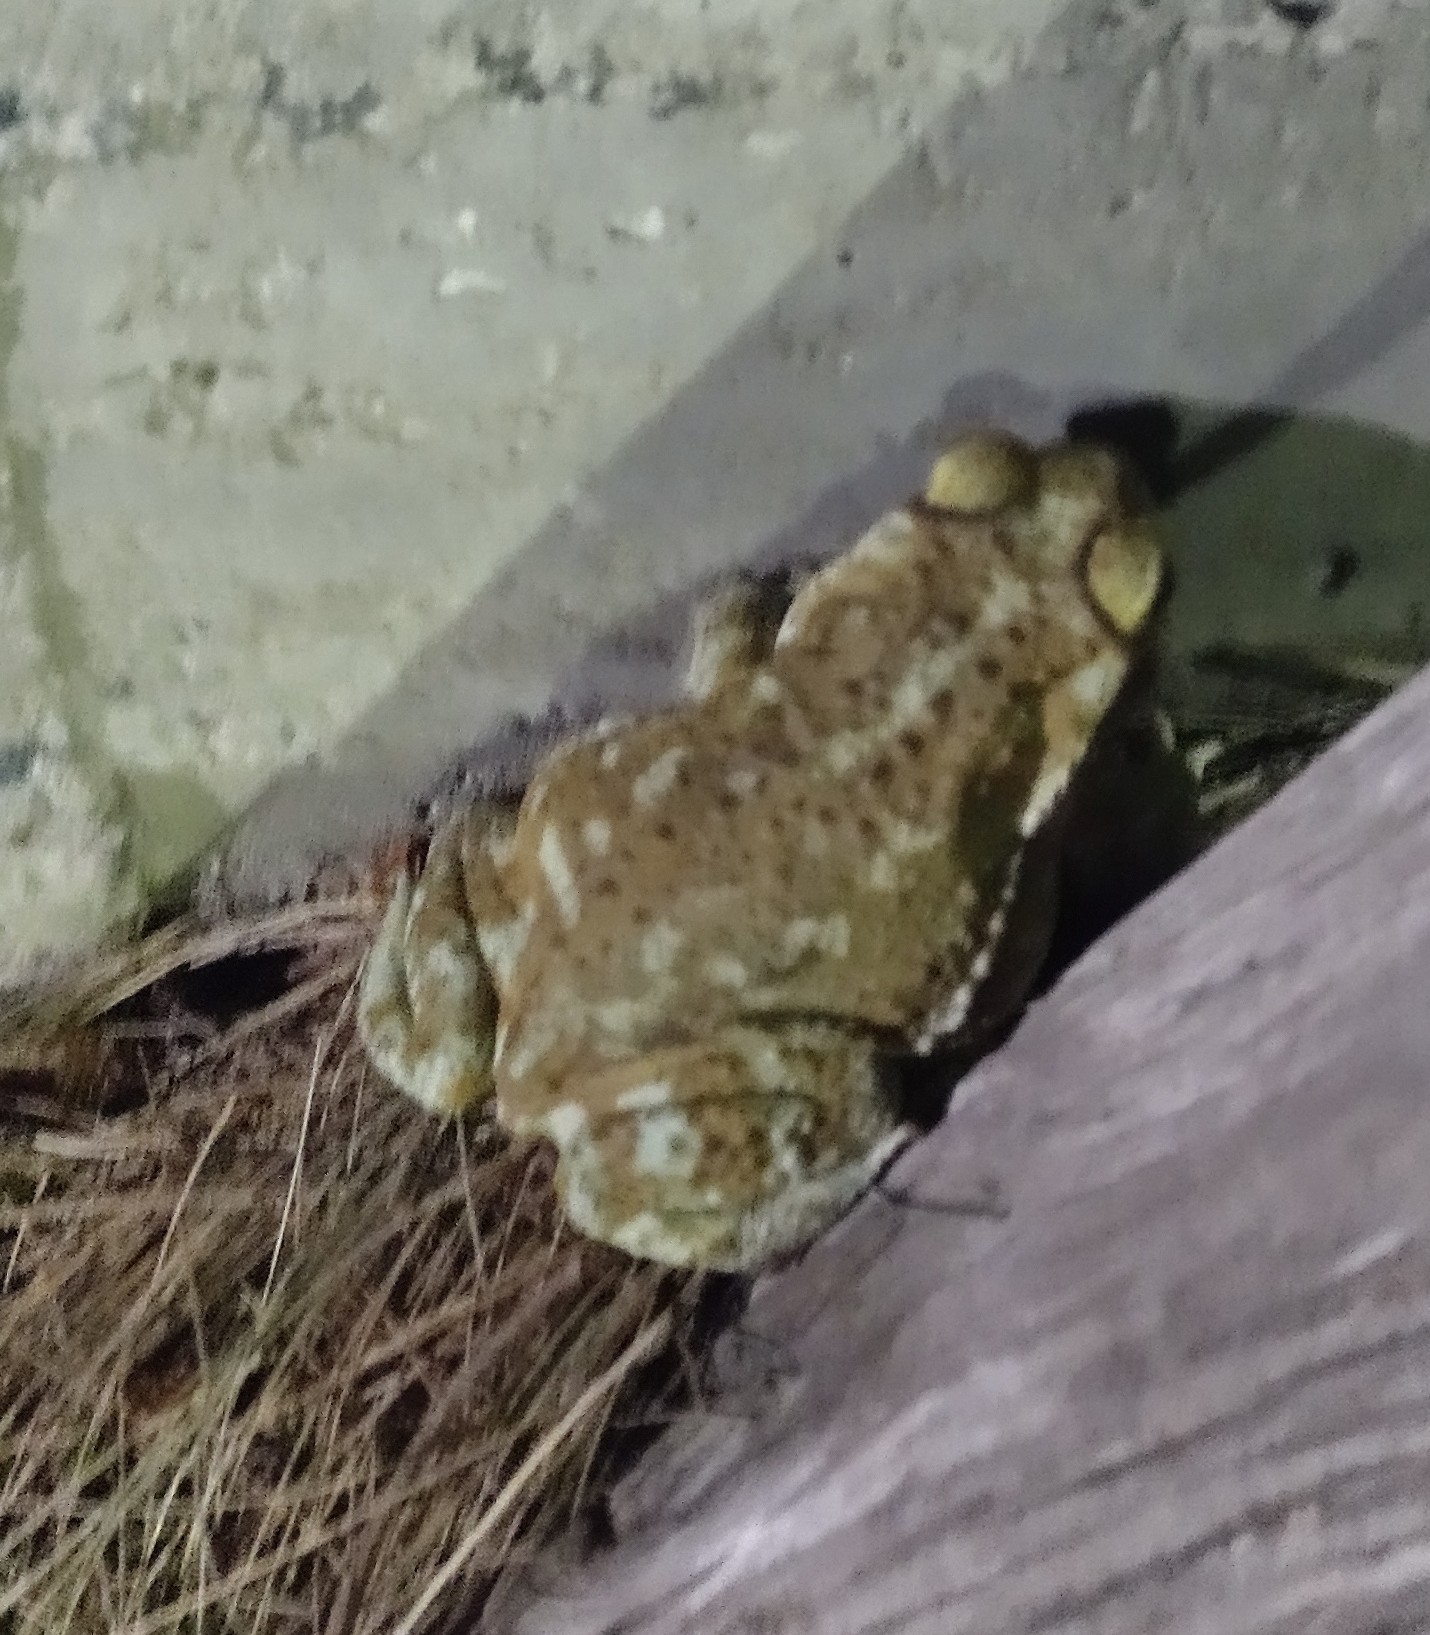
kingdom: Animalia
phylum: Chordata
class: Amphibia
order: Anura
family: Bufonidae
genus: Rhinella
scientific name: Rhinella arenarum
